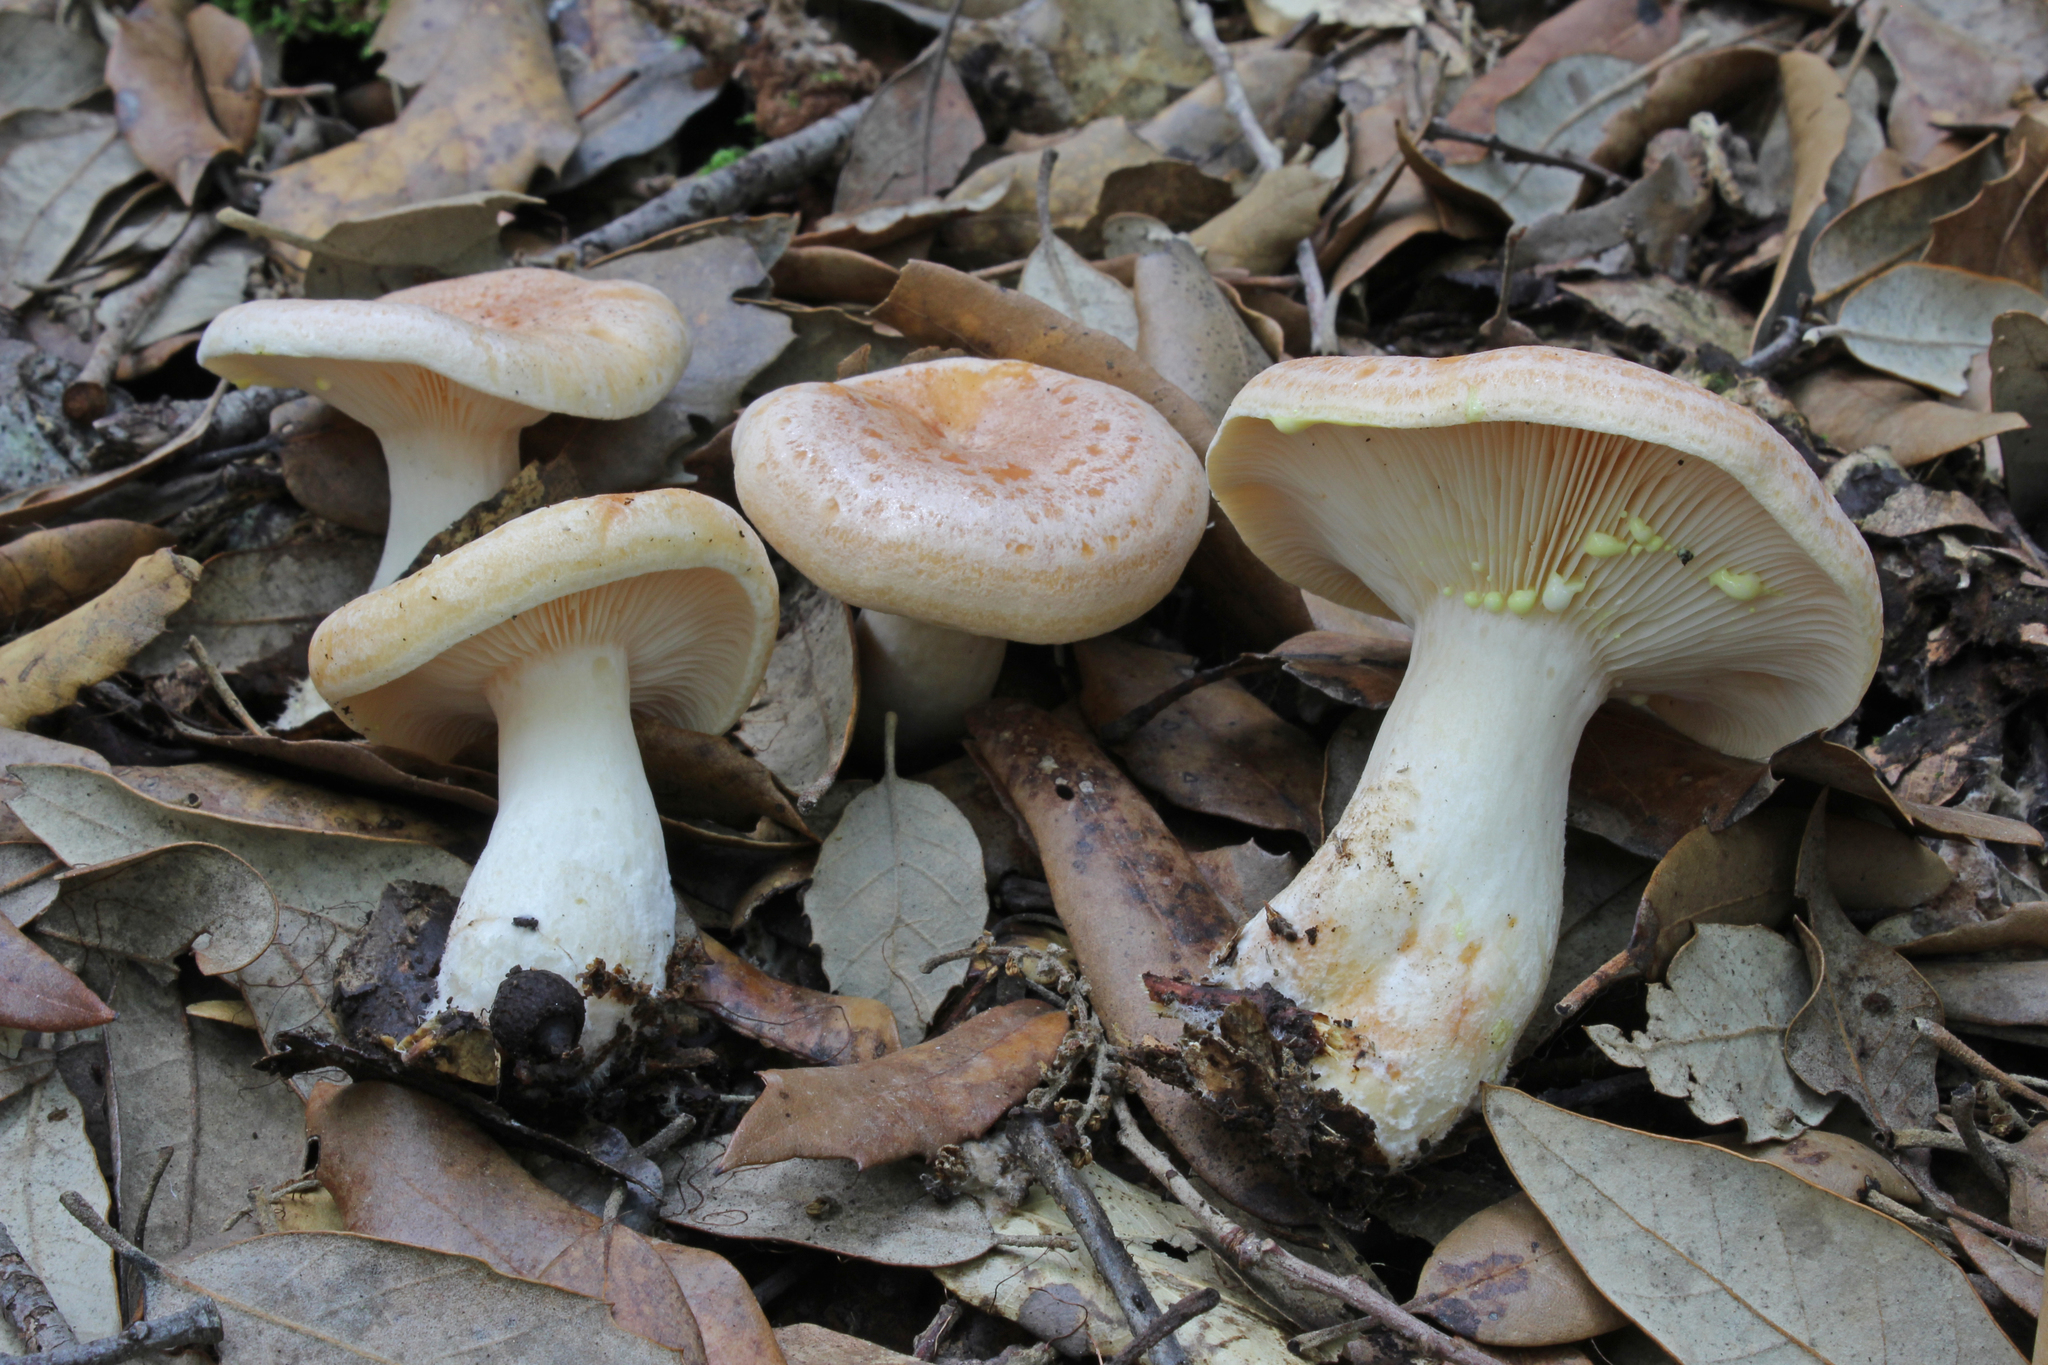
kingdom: Fungi
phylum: Basidiomycota
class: Agaricomycetes
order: Russulales
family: Russulaceae
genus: Lactarius
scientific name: Lactarius chrysorrheus
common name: Yellowdrop milkcap
